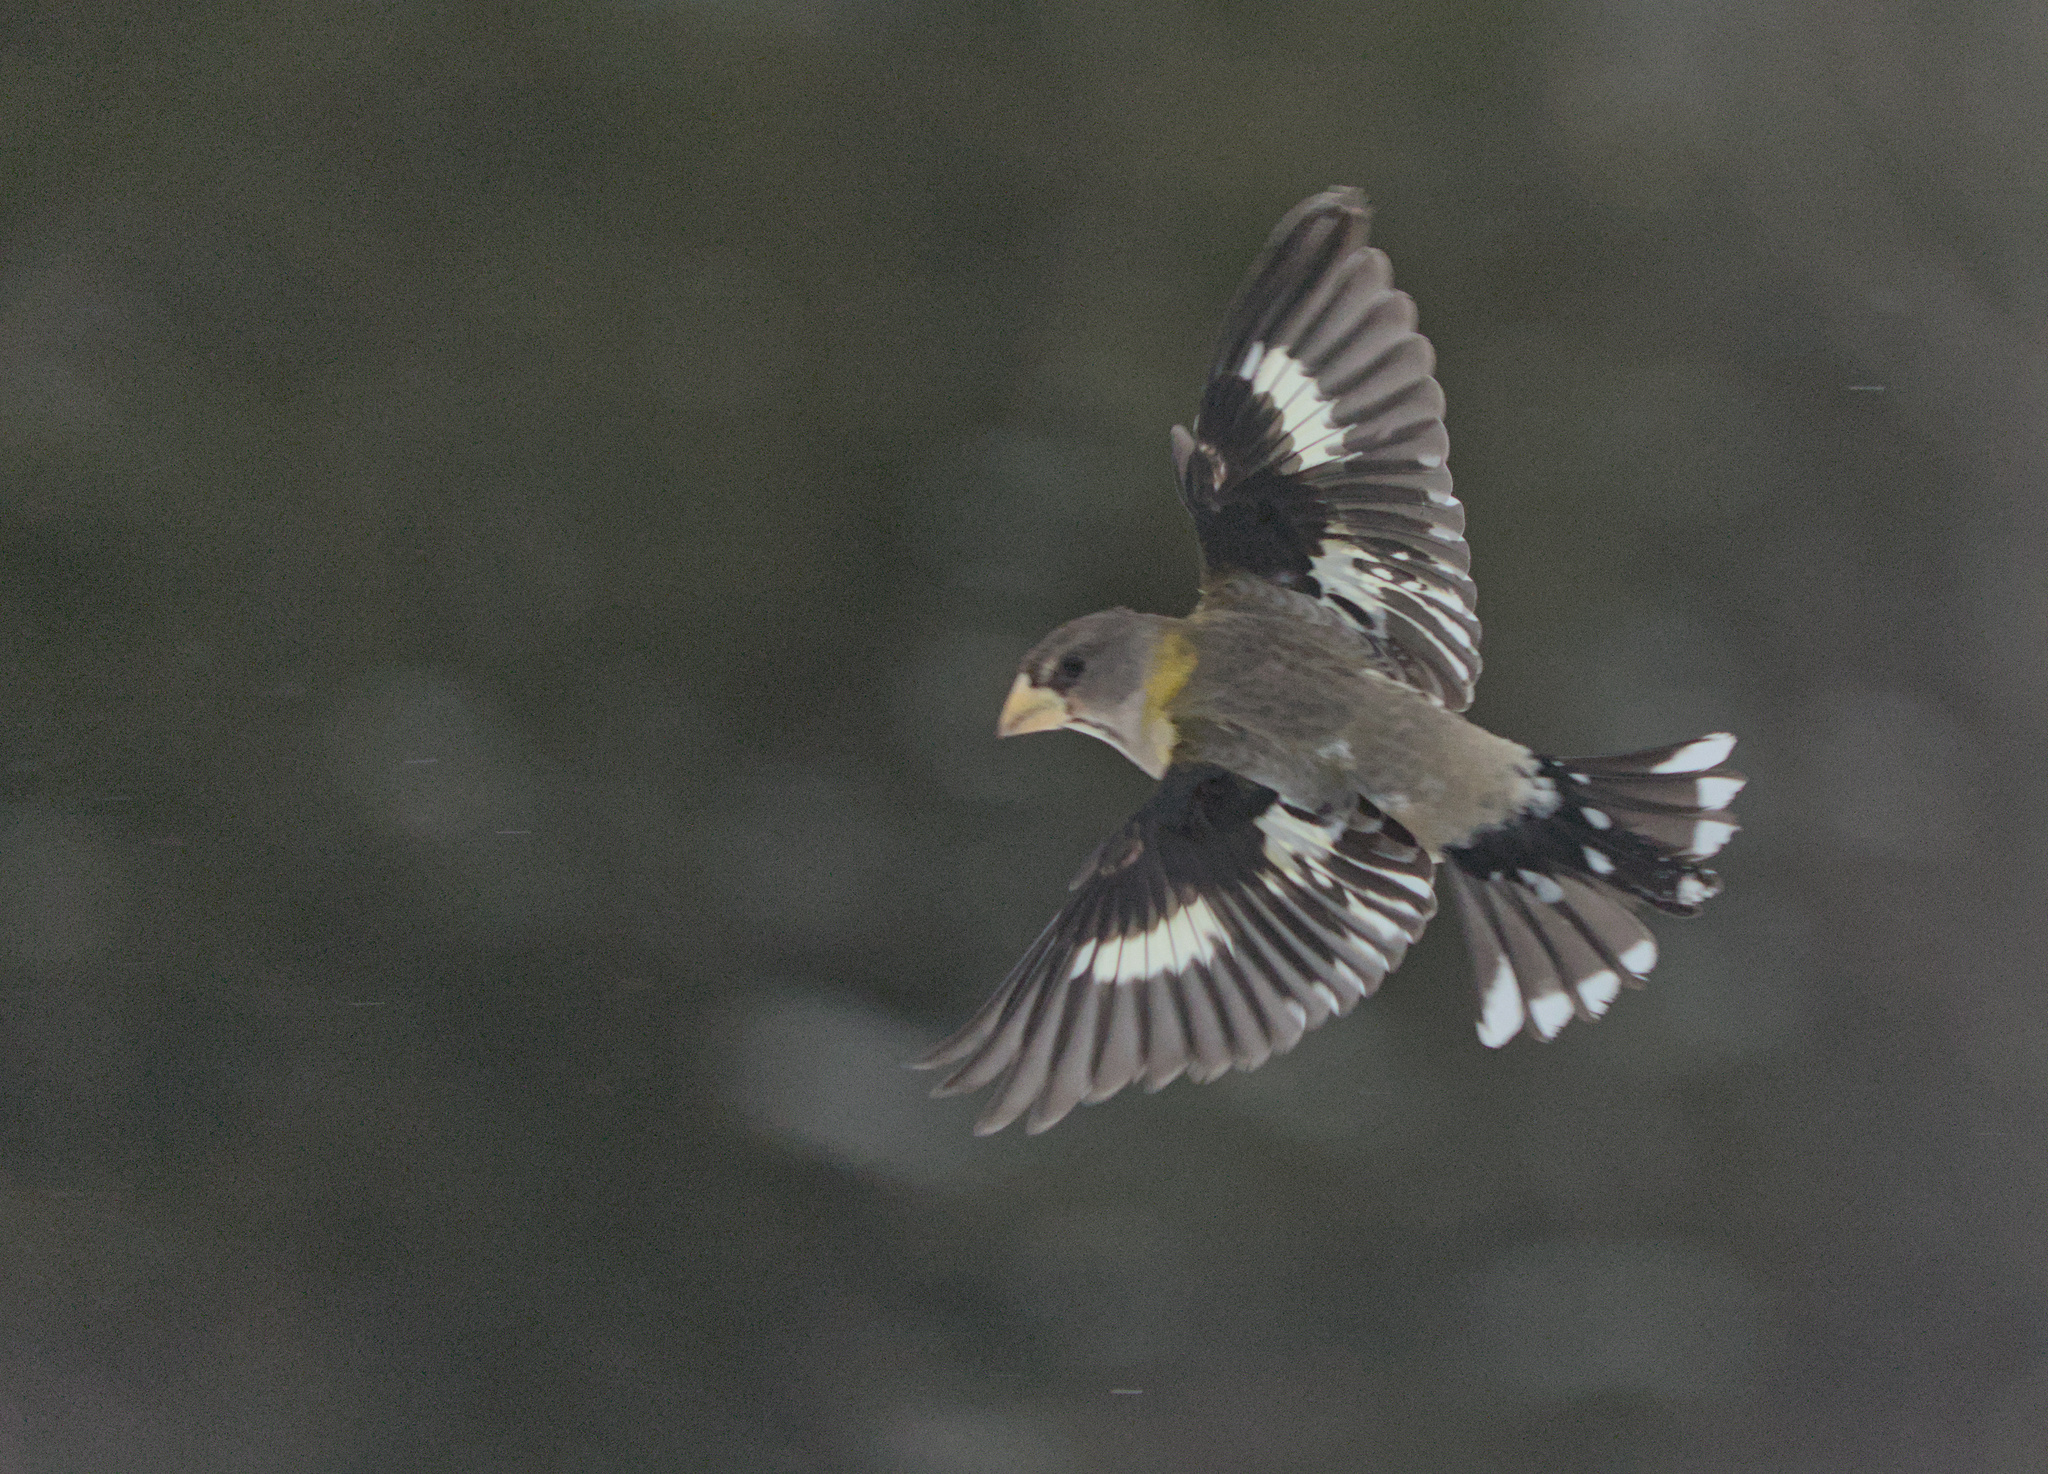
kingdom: Animalia
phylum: Chordata
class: Aves
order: Passeriformes
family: Fringillidae
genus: Hesperiphona
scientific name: Hesperiphona vespertina
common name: Evening grosbeak
